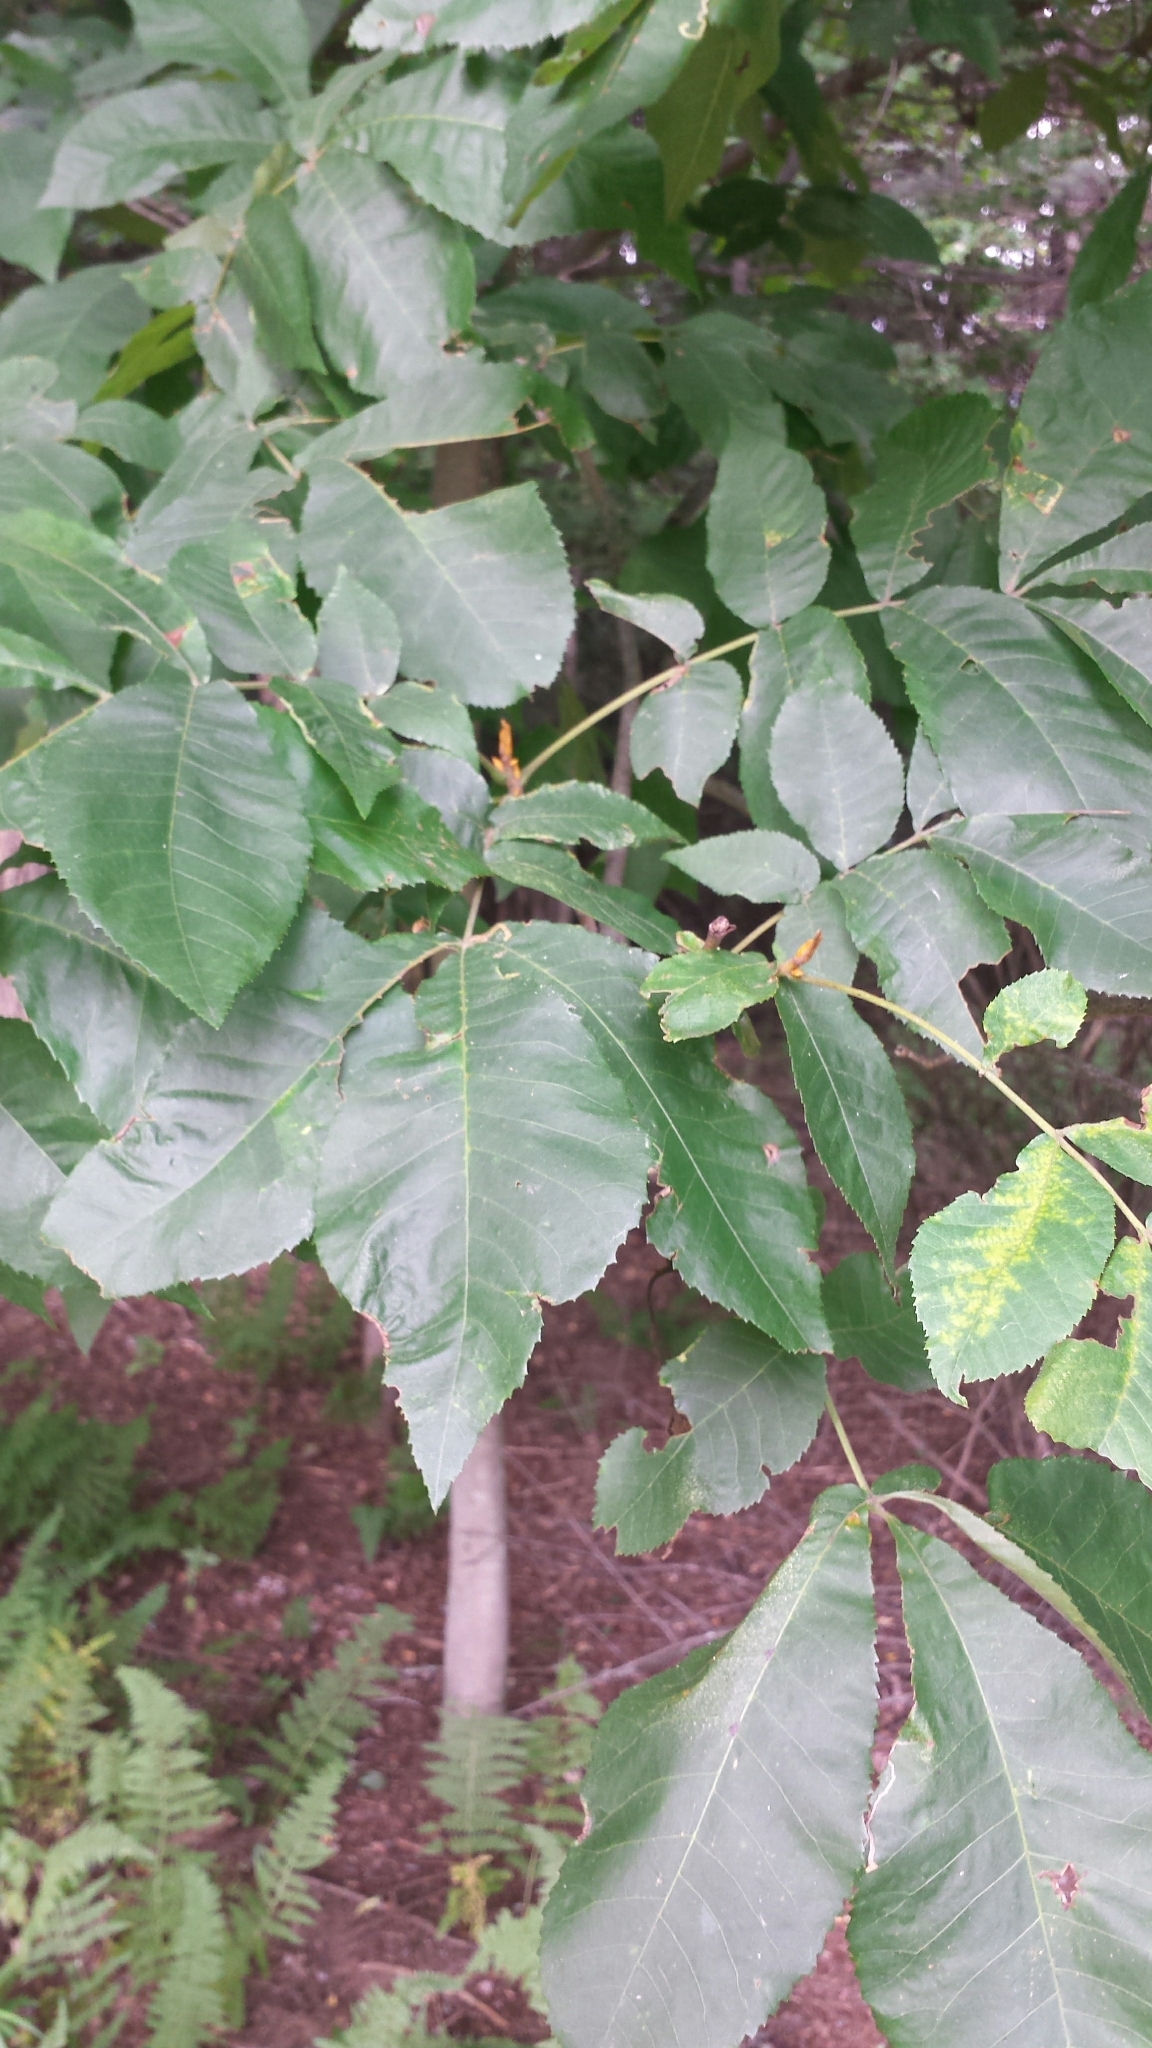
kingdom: Plantae
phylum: Tracheophyta
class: Magnoliopsida
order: Fagales
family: Juglandaceae
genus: Carya
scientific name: Carya cordiformis
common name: Bitternut hickory
